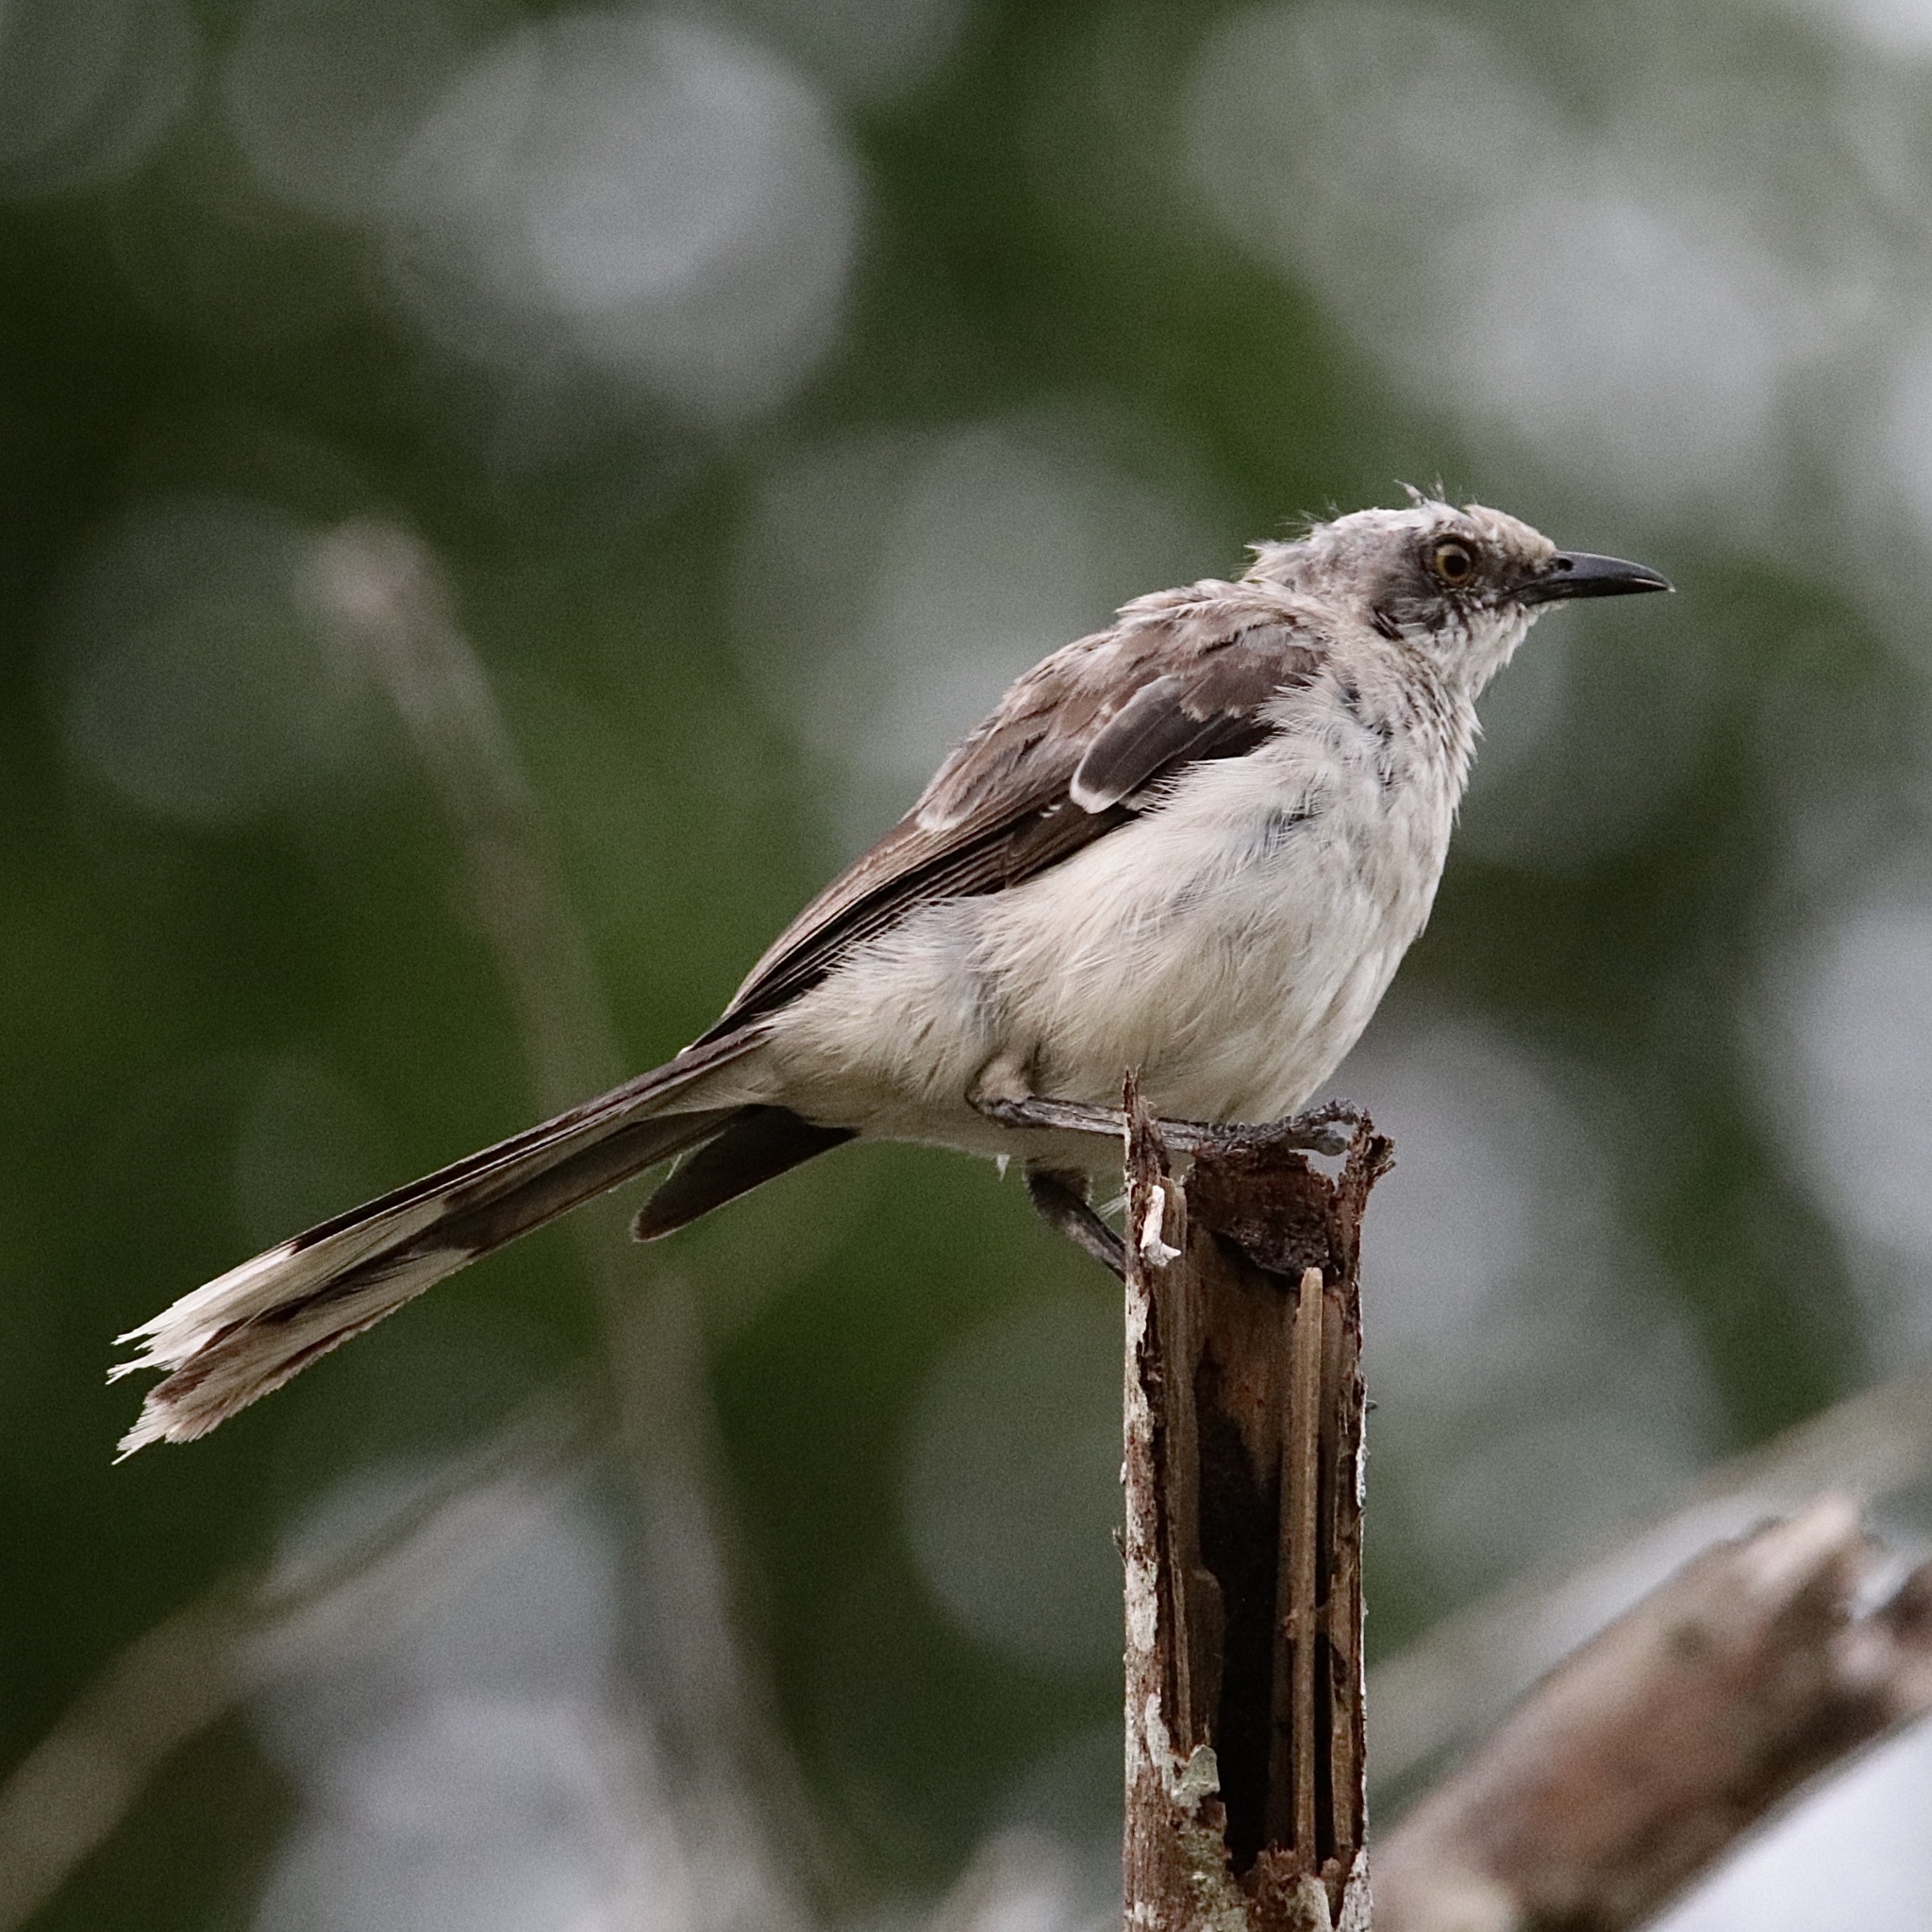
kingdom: Animalia
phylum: Chordata
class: Aves
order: Passeriformes
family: Mimidae
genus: Mimus
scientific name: Mimus gilvus
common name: Tropical mockingbird
